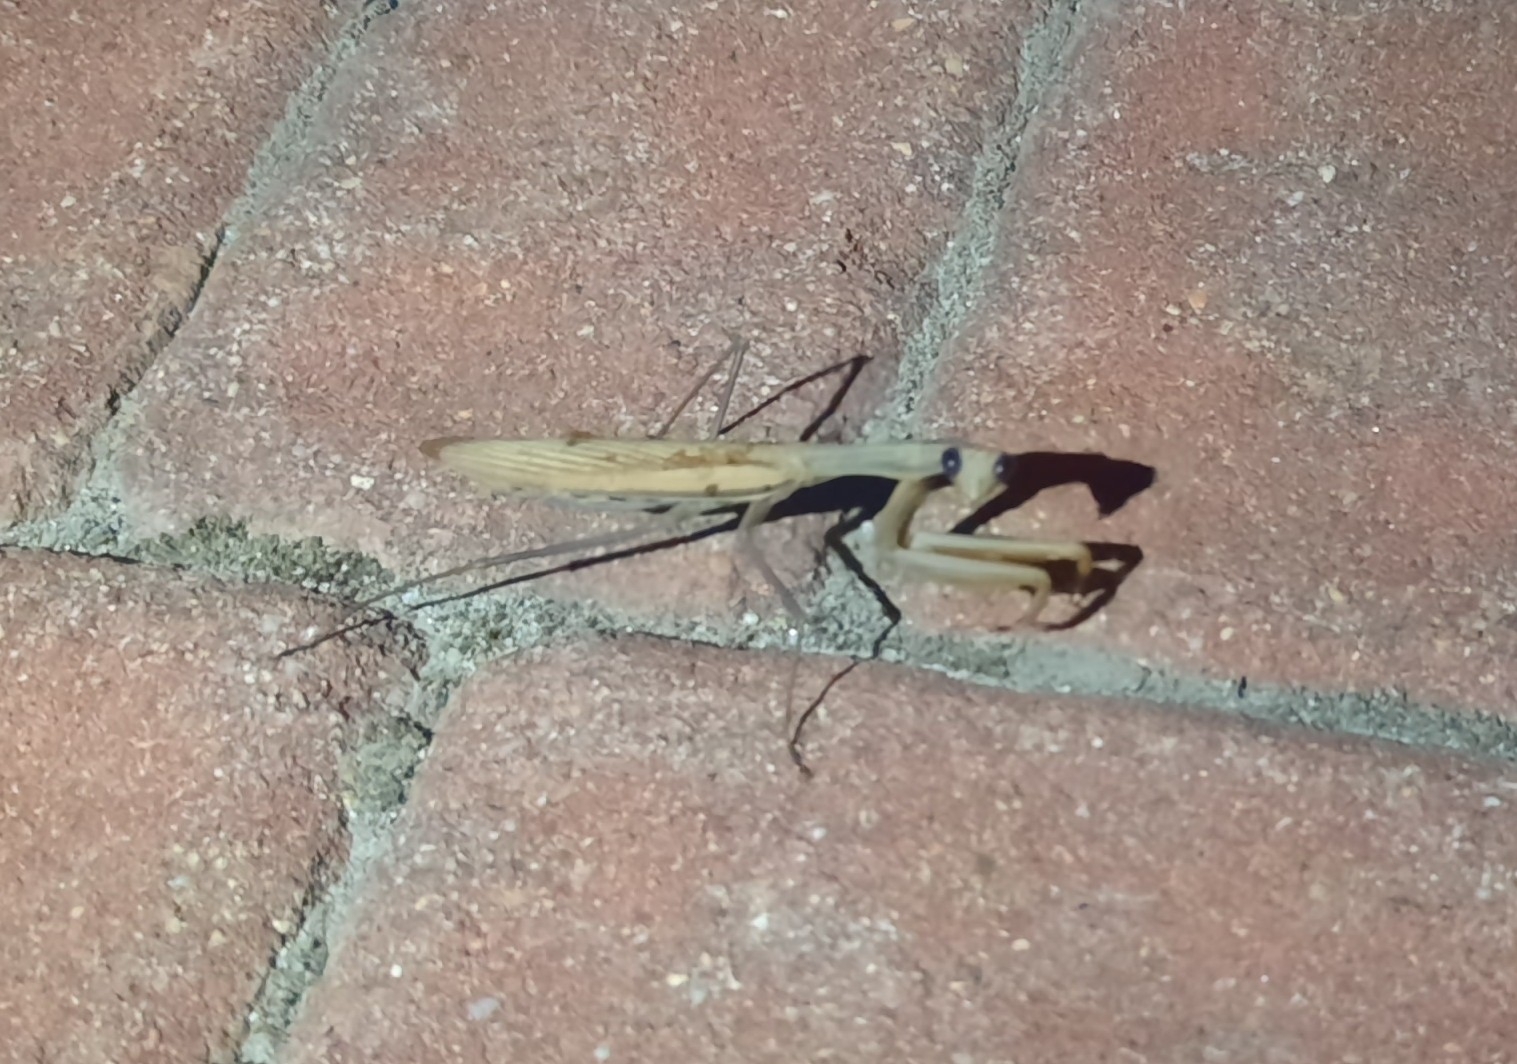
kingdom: Animalia
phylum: Arthropoda
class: Insecta
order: Mantodea
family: Mantidae
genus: Mantis
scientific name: Mantis religiosa
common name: Praying mantis
